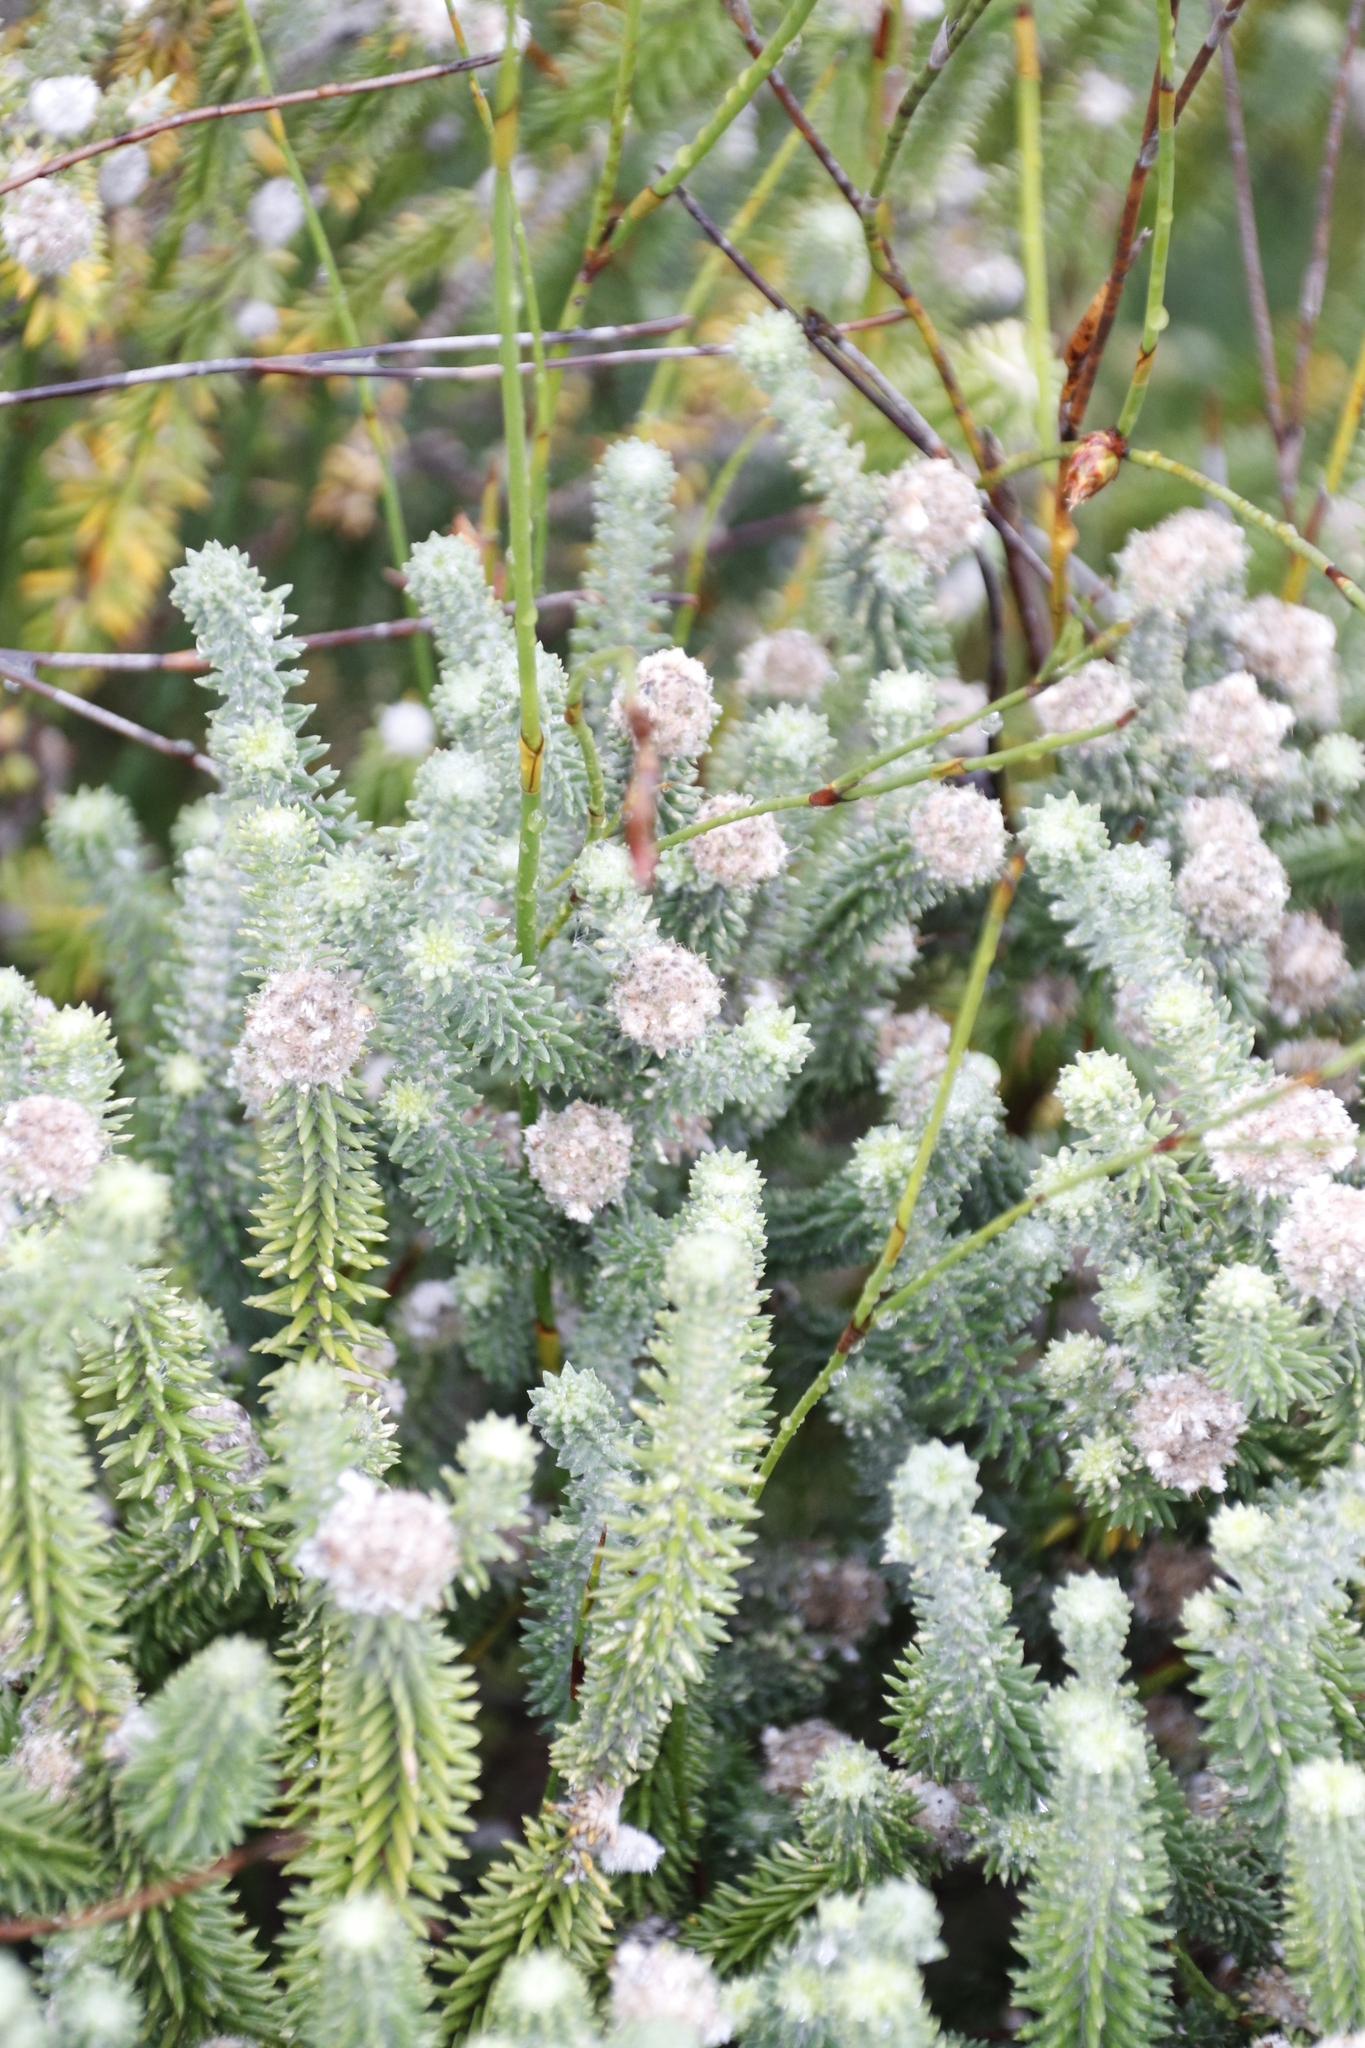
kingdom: Plantae
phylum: Tracheophyta
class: Magnoliopsida
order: Lamiales
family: Stilbaceae
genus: Kogelbergia
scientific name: Kogelbergia verticillata
